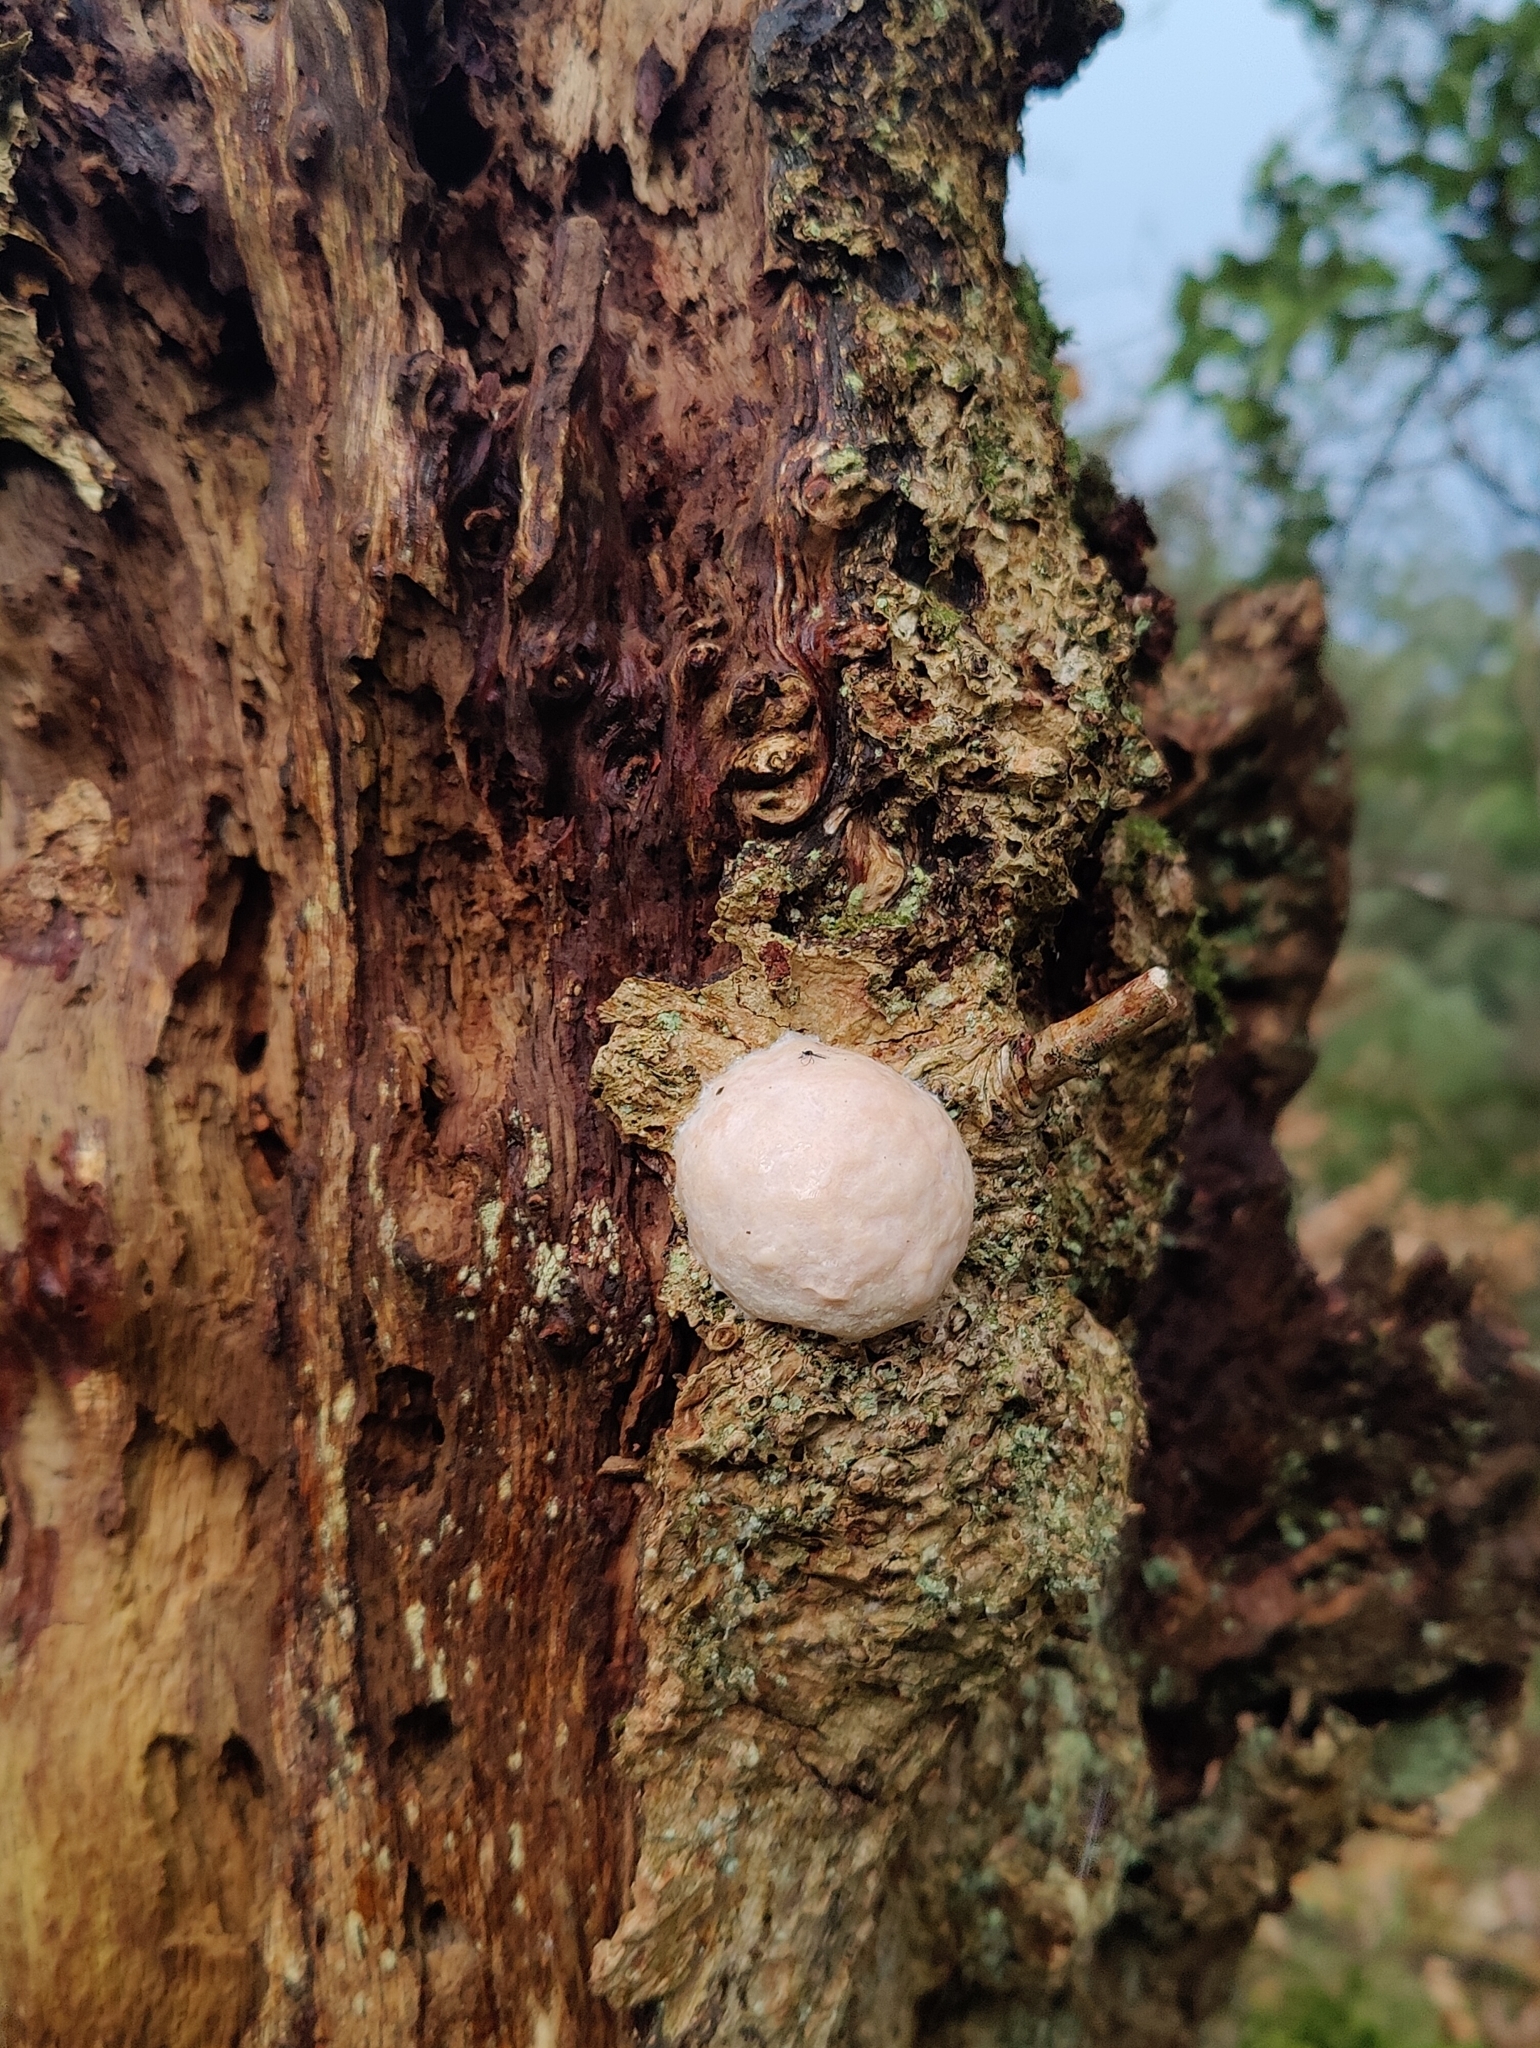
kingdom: Protozoa
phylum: Mycetozoa
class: Myxomycetes
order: Cribrariales
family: Tubiferaceae
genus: Reticularia
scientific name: Reticularia lycoperdon
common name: False puffball
